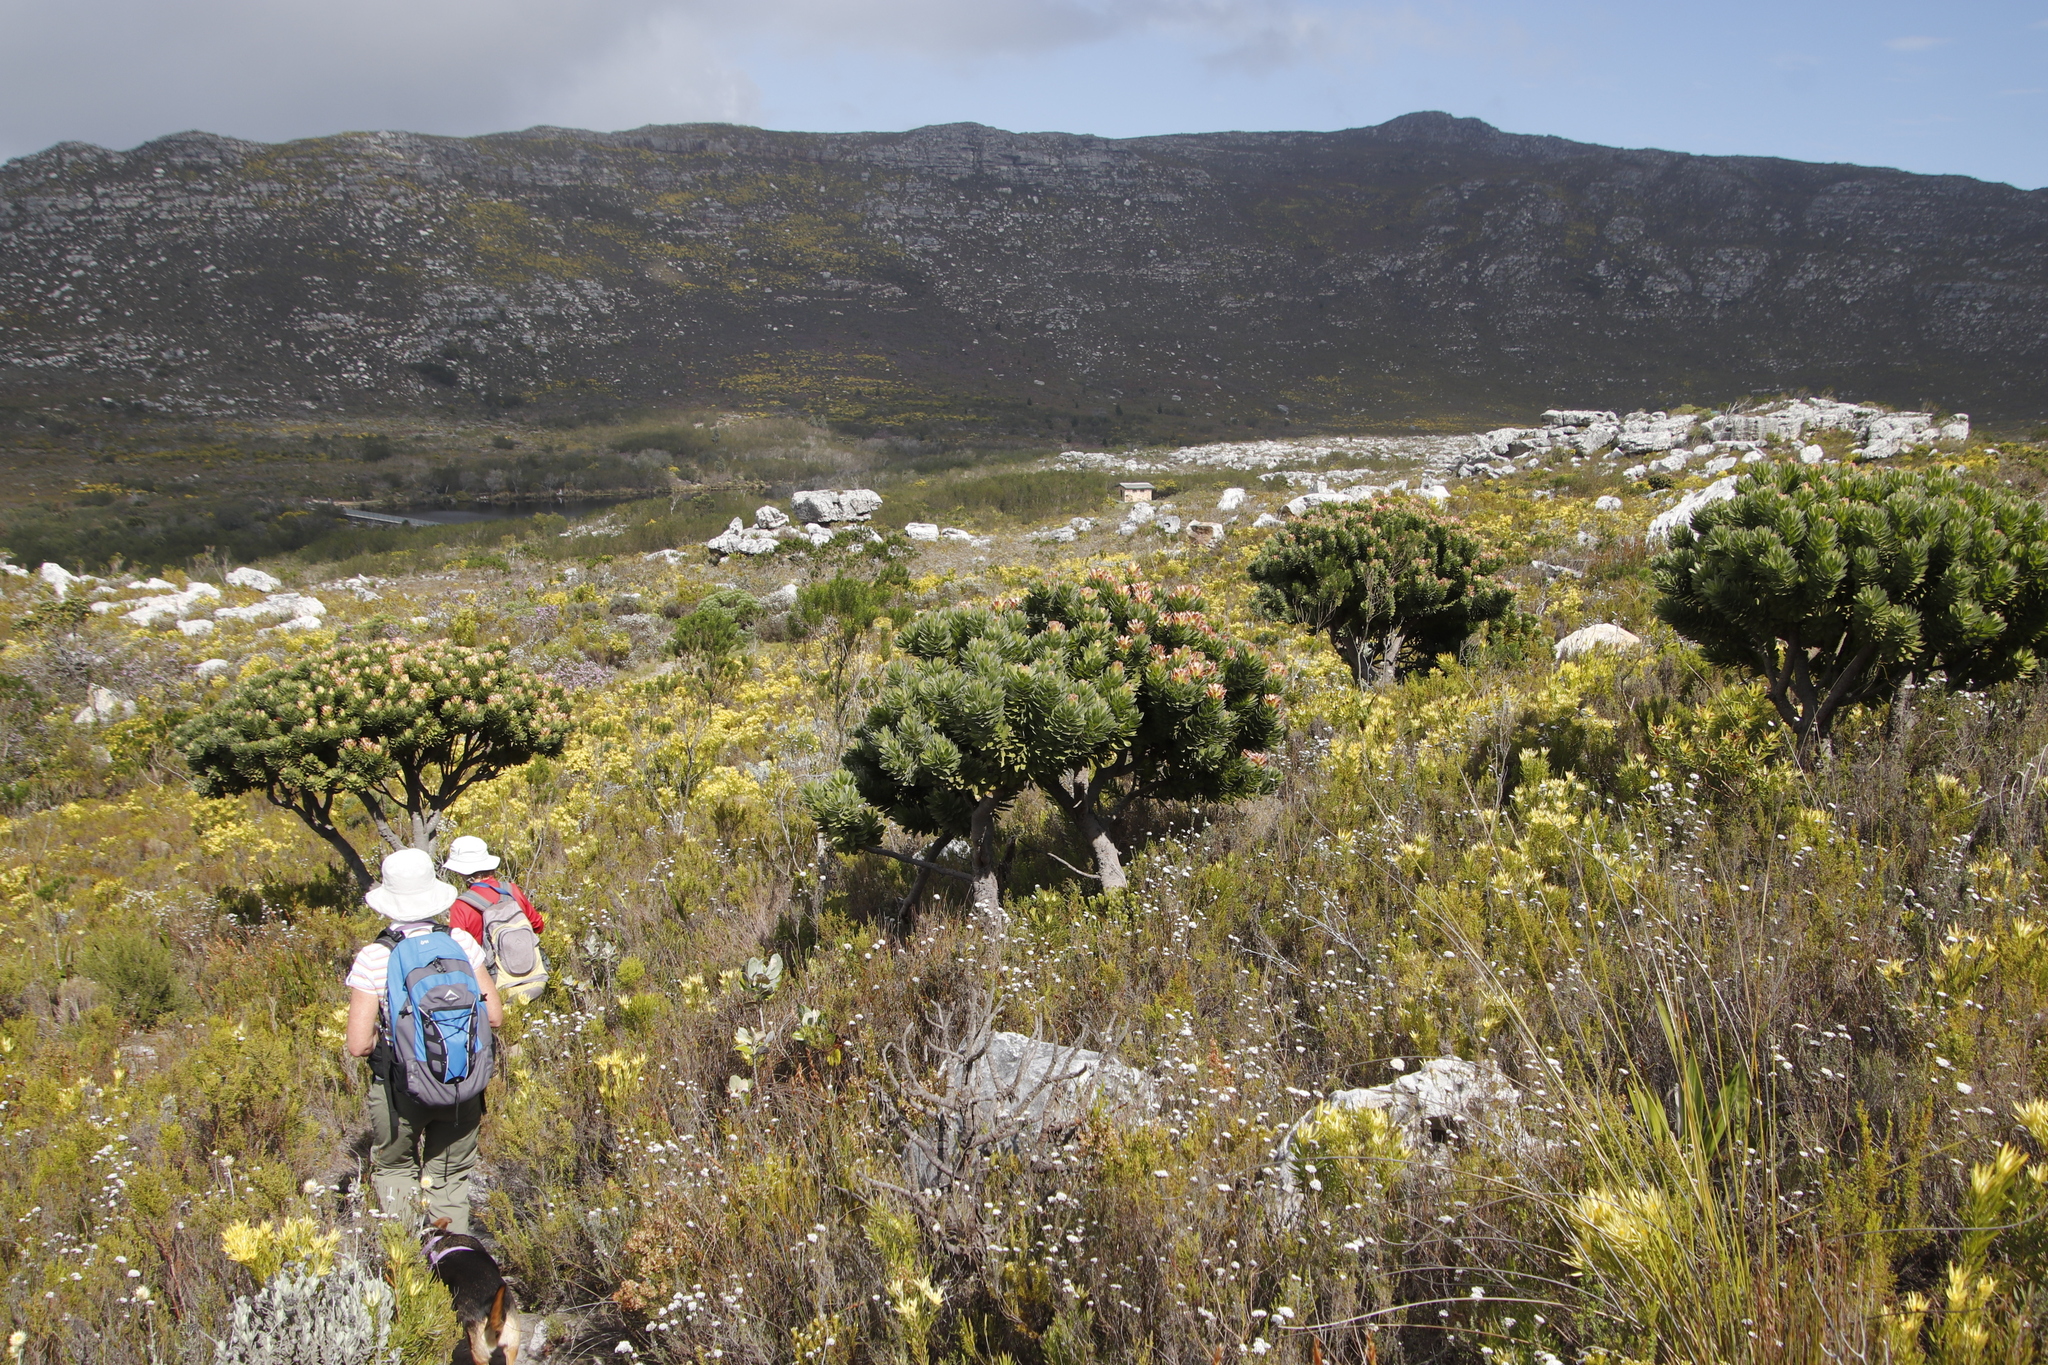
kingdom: Plantae
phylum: Tracheophyta
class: Magnoliopsida
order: Proteales
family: Proteaceae
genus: Mimetes
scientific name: Mimetes fimbriifolius
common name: Fringed bottlebrush
